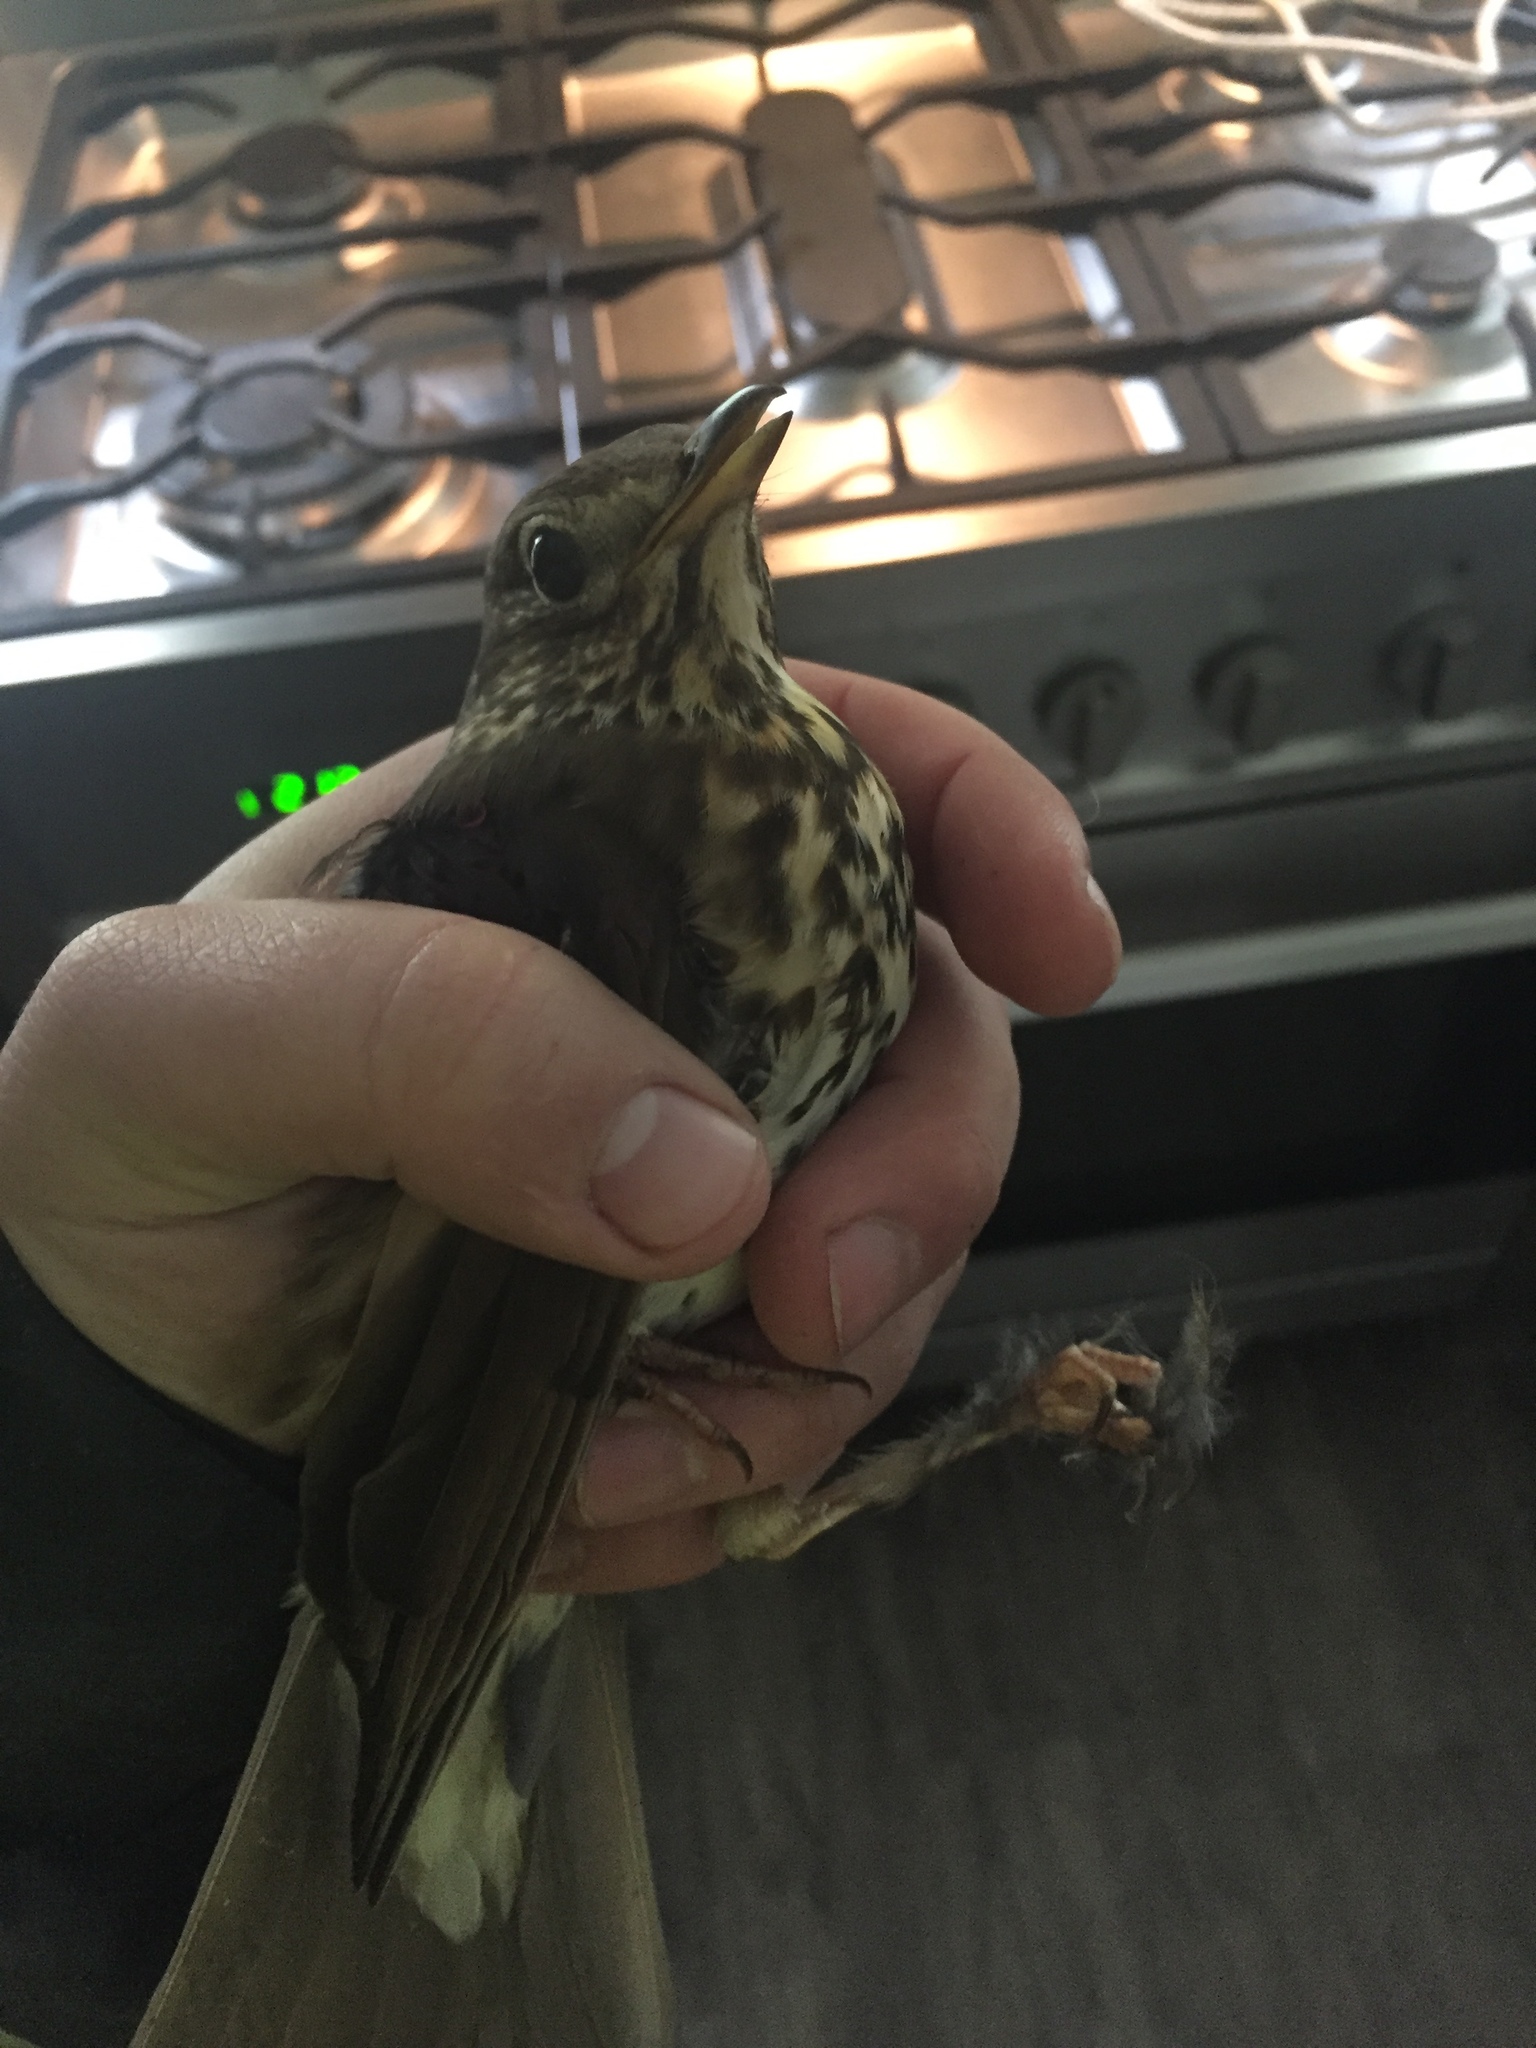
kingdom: Animalia
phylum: Chordata
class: Aves
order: Passeriformes
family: Turdidae
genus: Turdus
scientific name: Turdus philomelos
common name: Song thrush
